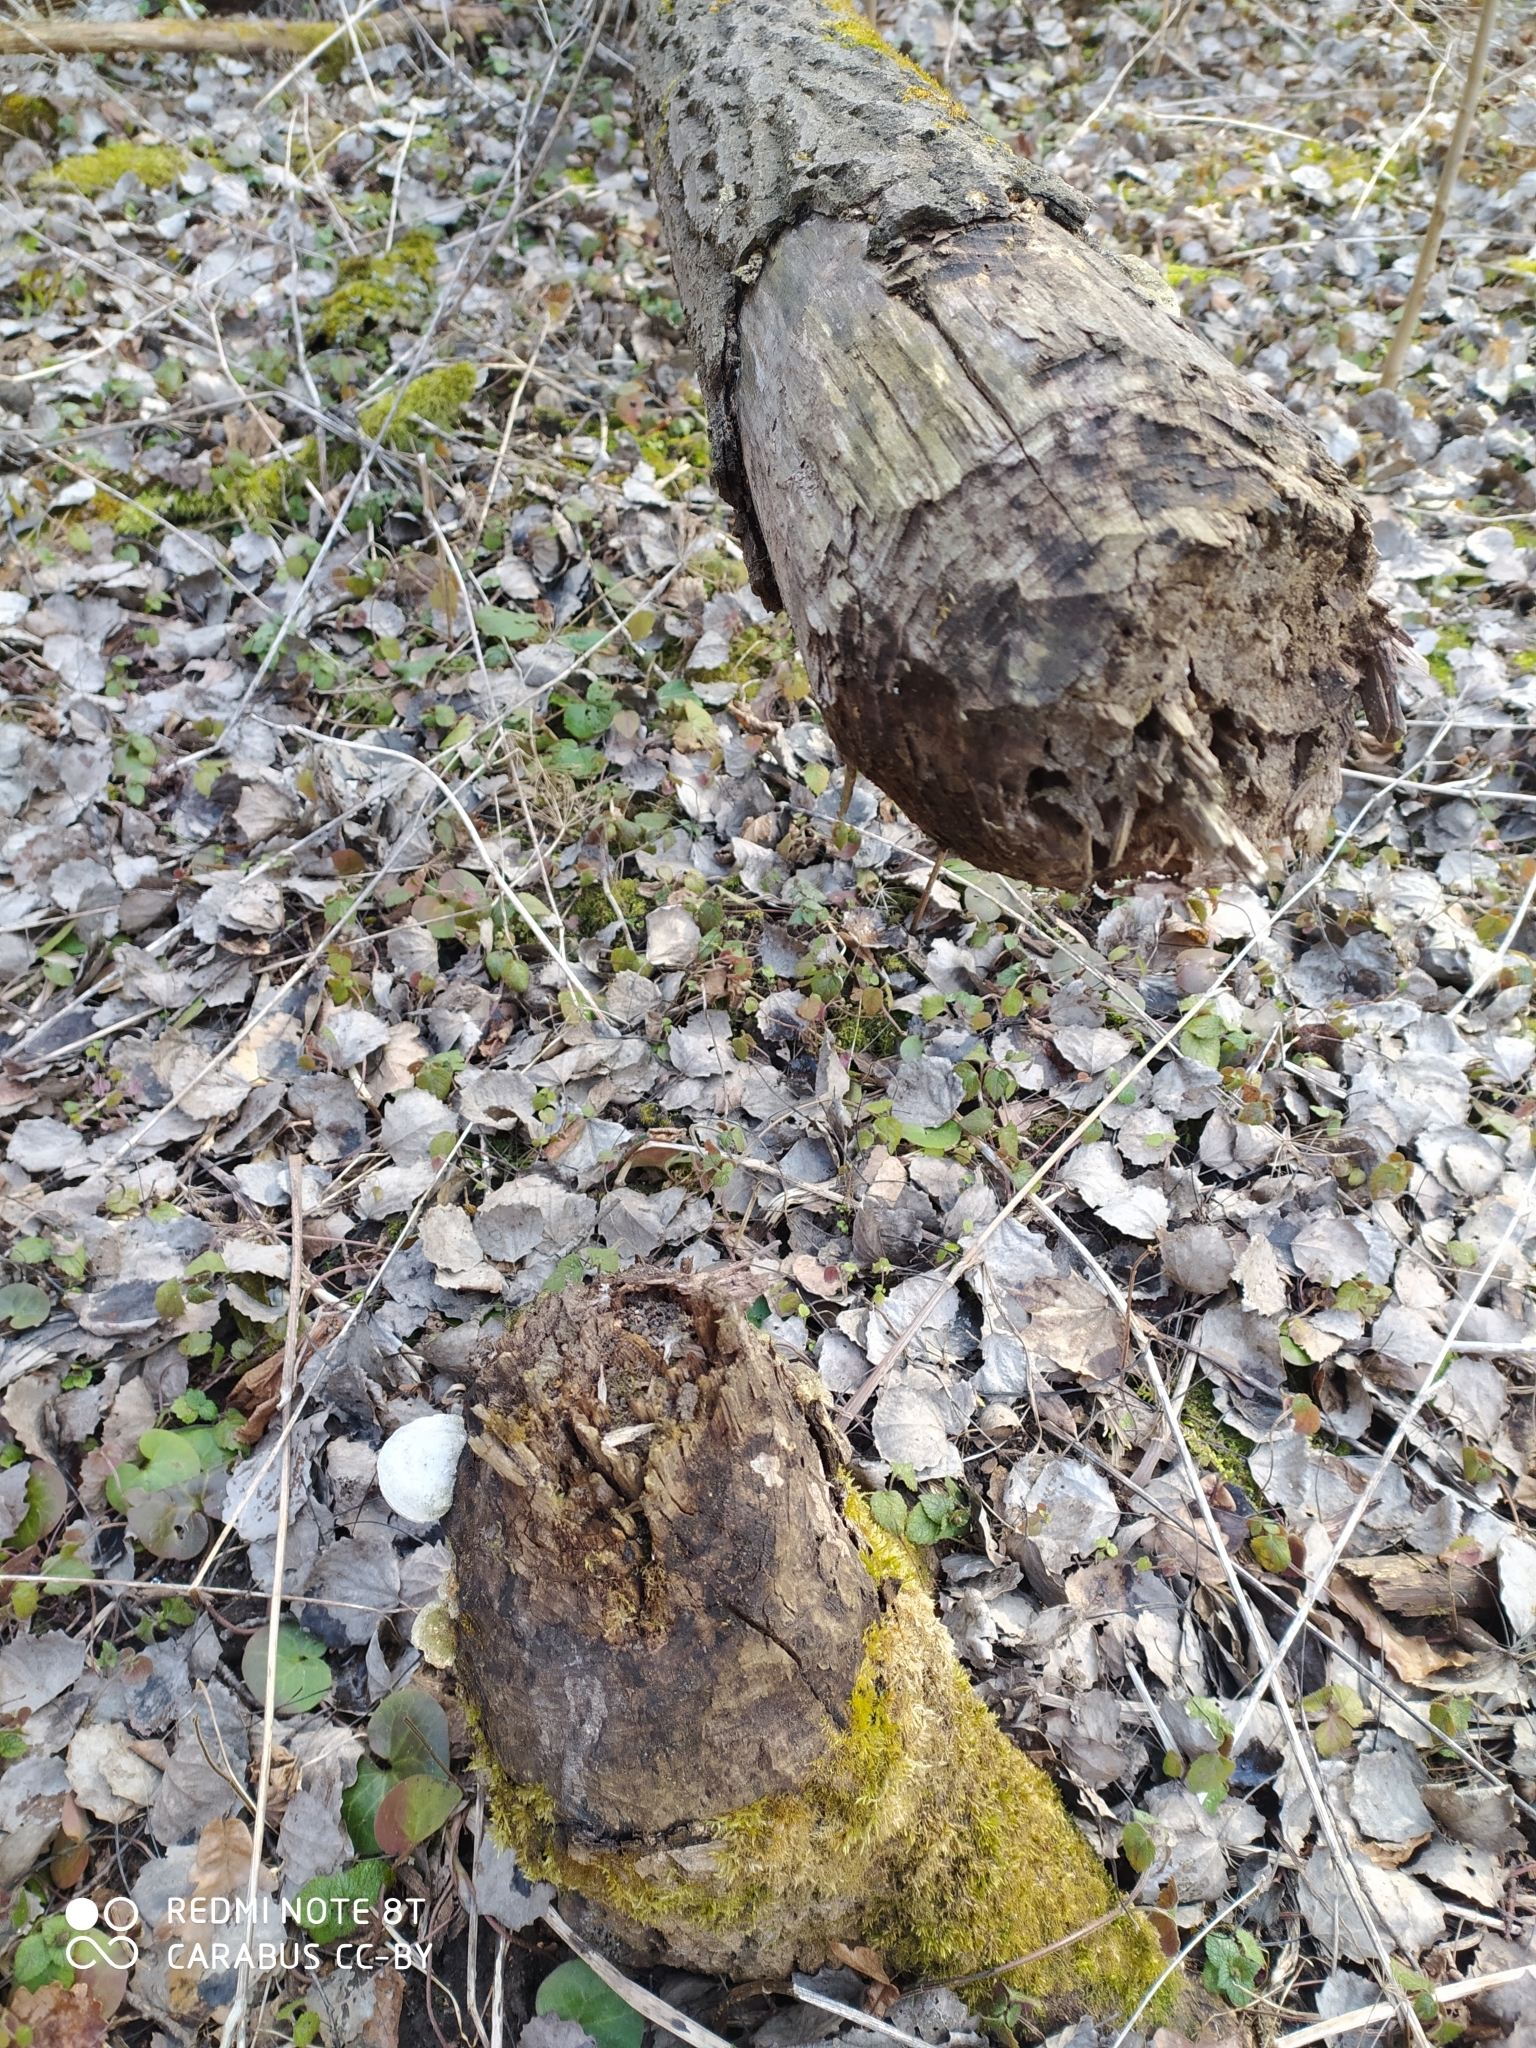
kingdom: Animalia
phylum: Chordata
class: Mammalia
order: Rodentia
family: Castoridae
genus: Castor
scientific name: Castor fiber
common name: Eurasian beaver
